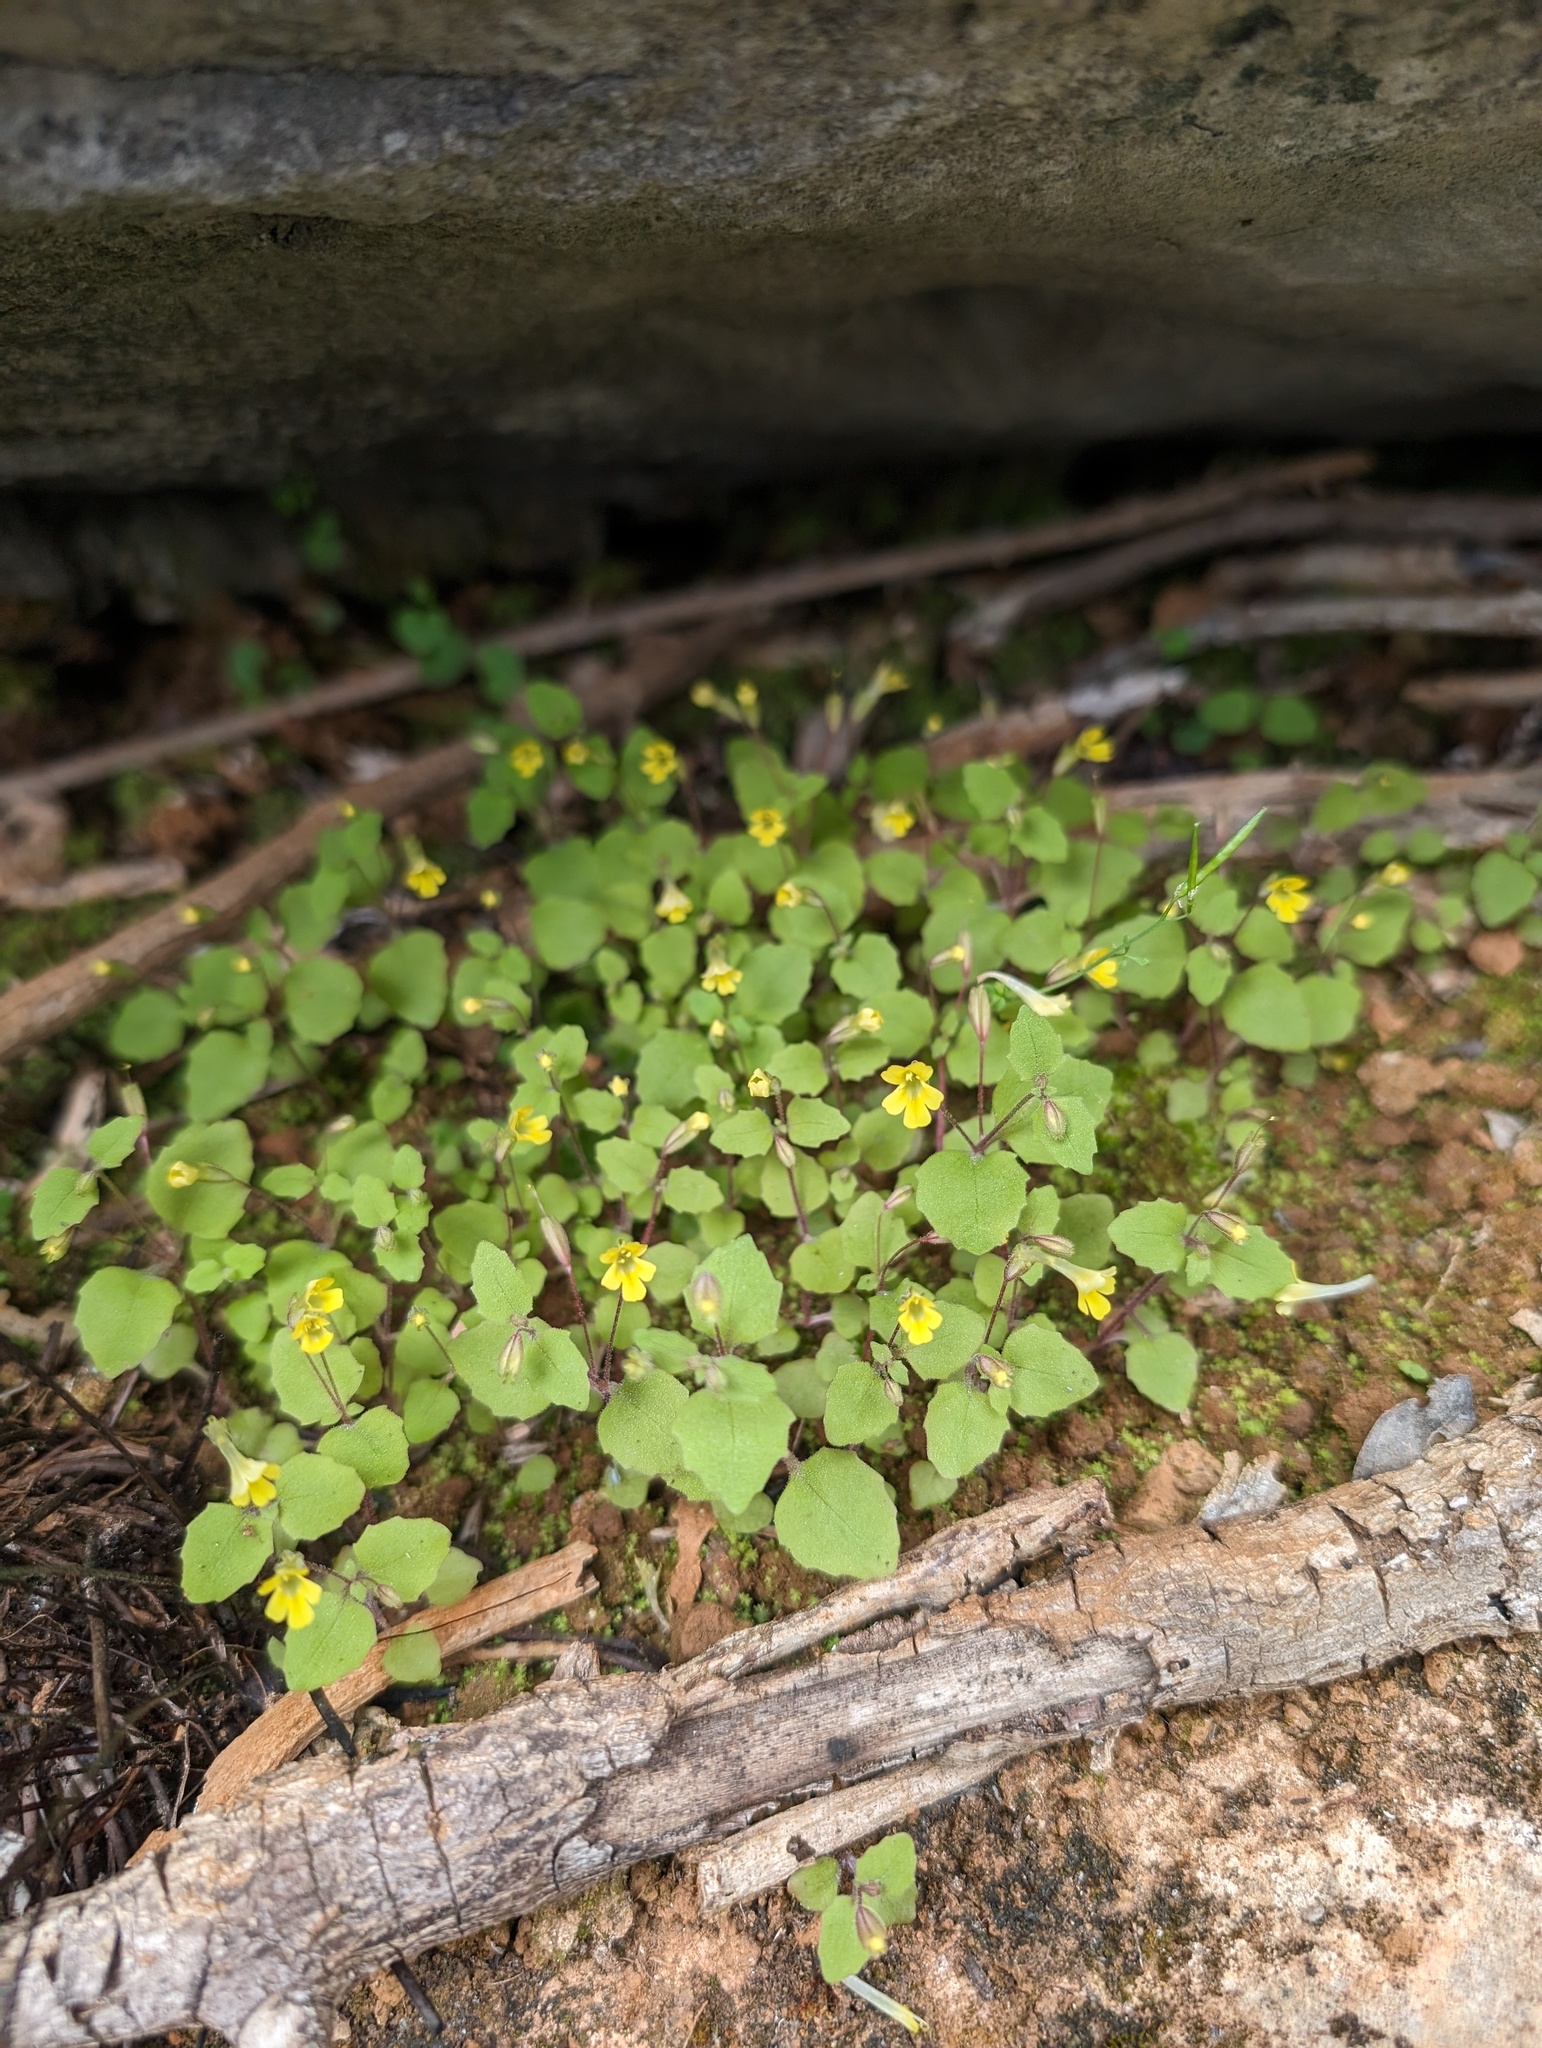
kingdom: Plantae
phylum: Tracheophyta
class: Magnoliopsida
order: Lamiales
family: Phrymaceae
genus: Erythranthe
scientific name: Erythranthe taylorii
